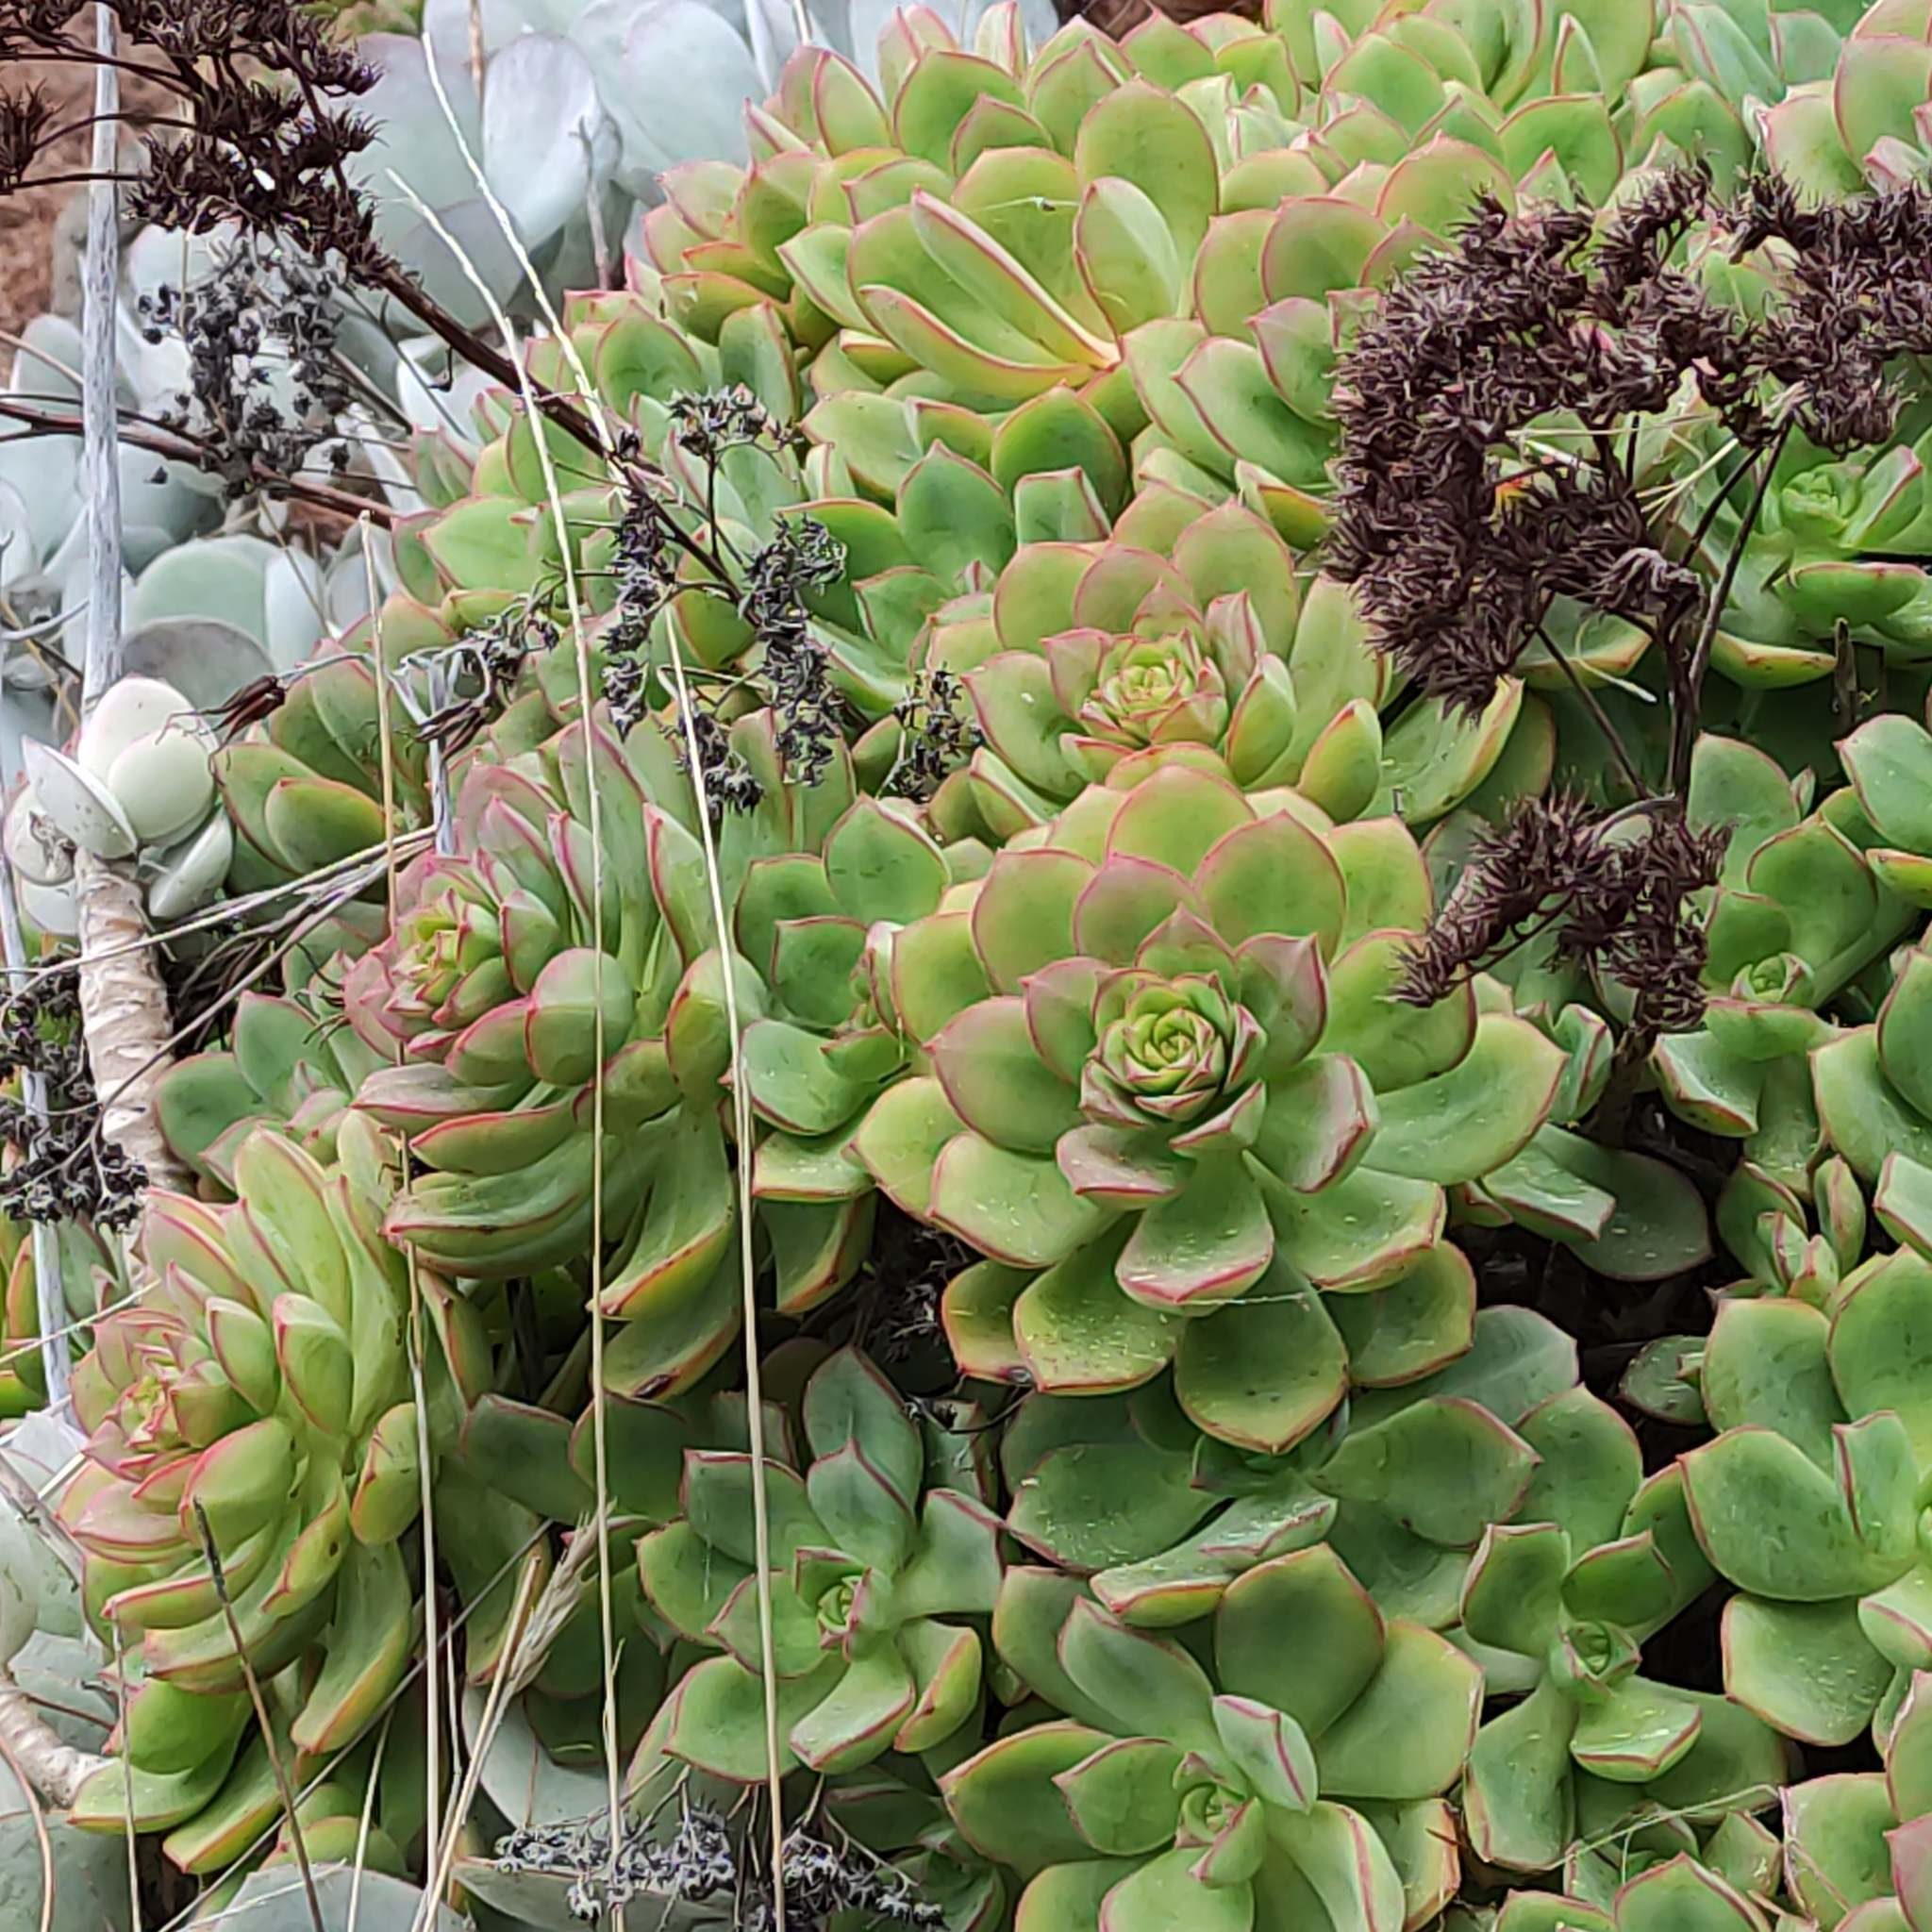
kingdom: Plantae
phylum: Tracheophyta
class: Magnoliopsida
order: Saxifragales
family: Crassulaceae
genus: Aeonium
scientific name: Aeonium haworthii
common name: Haworth's aeonium
